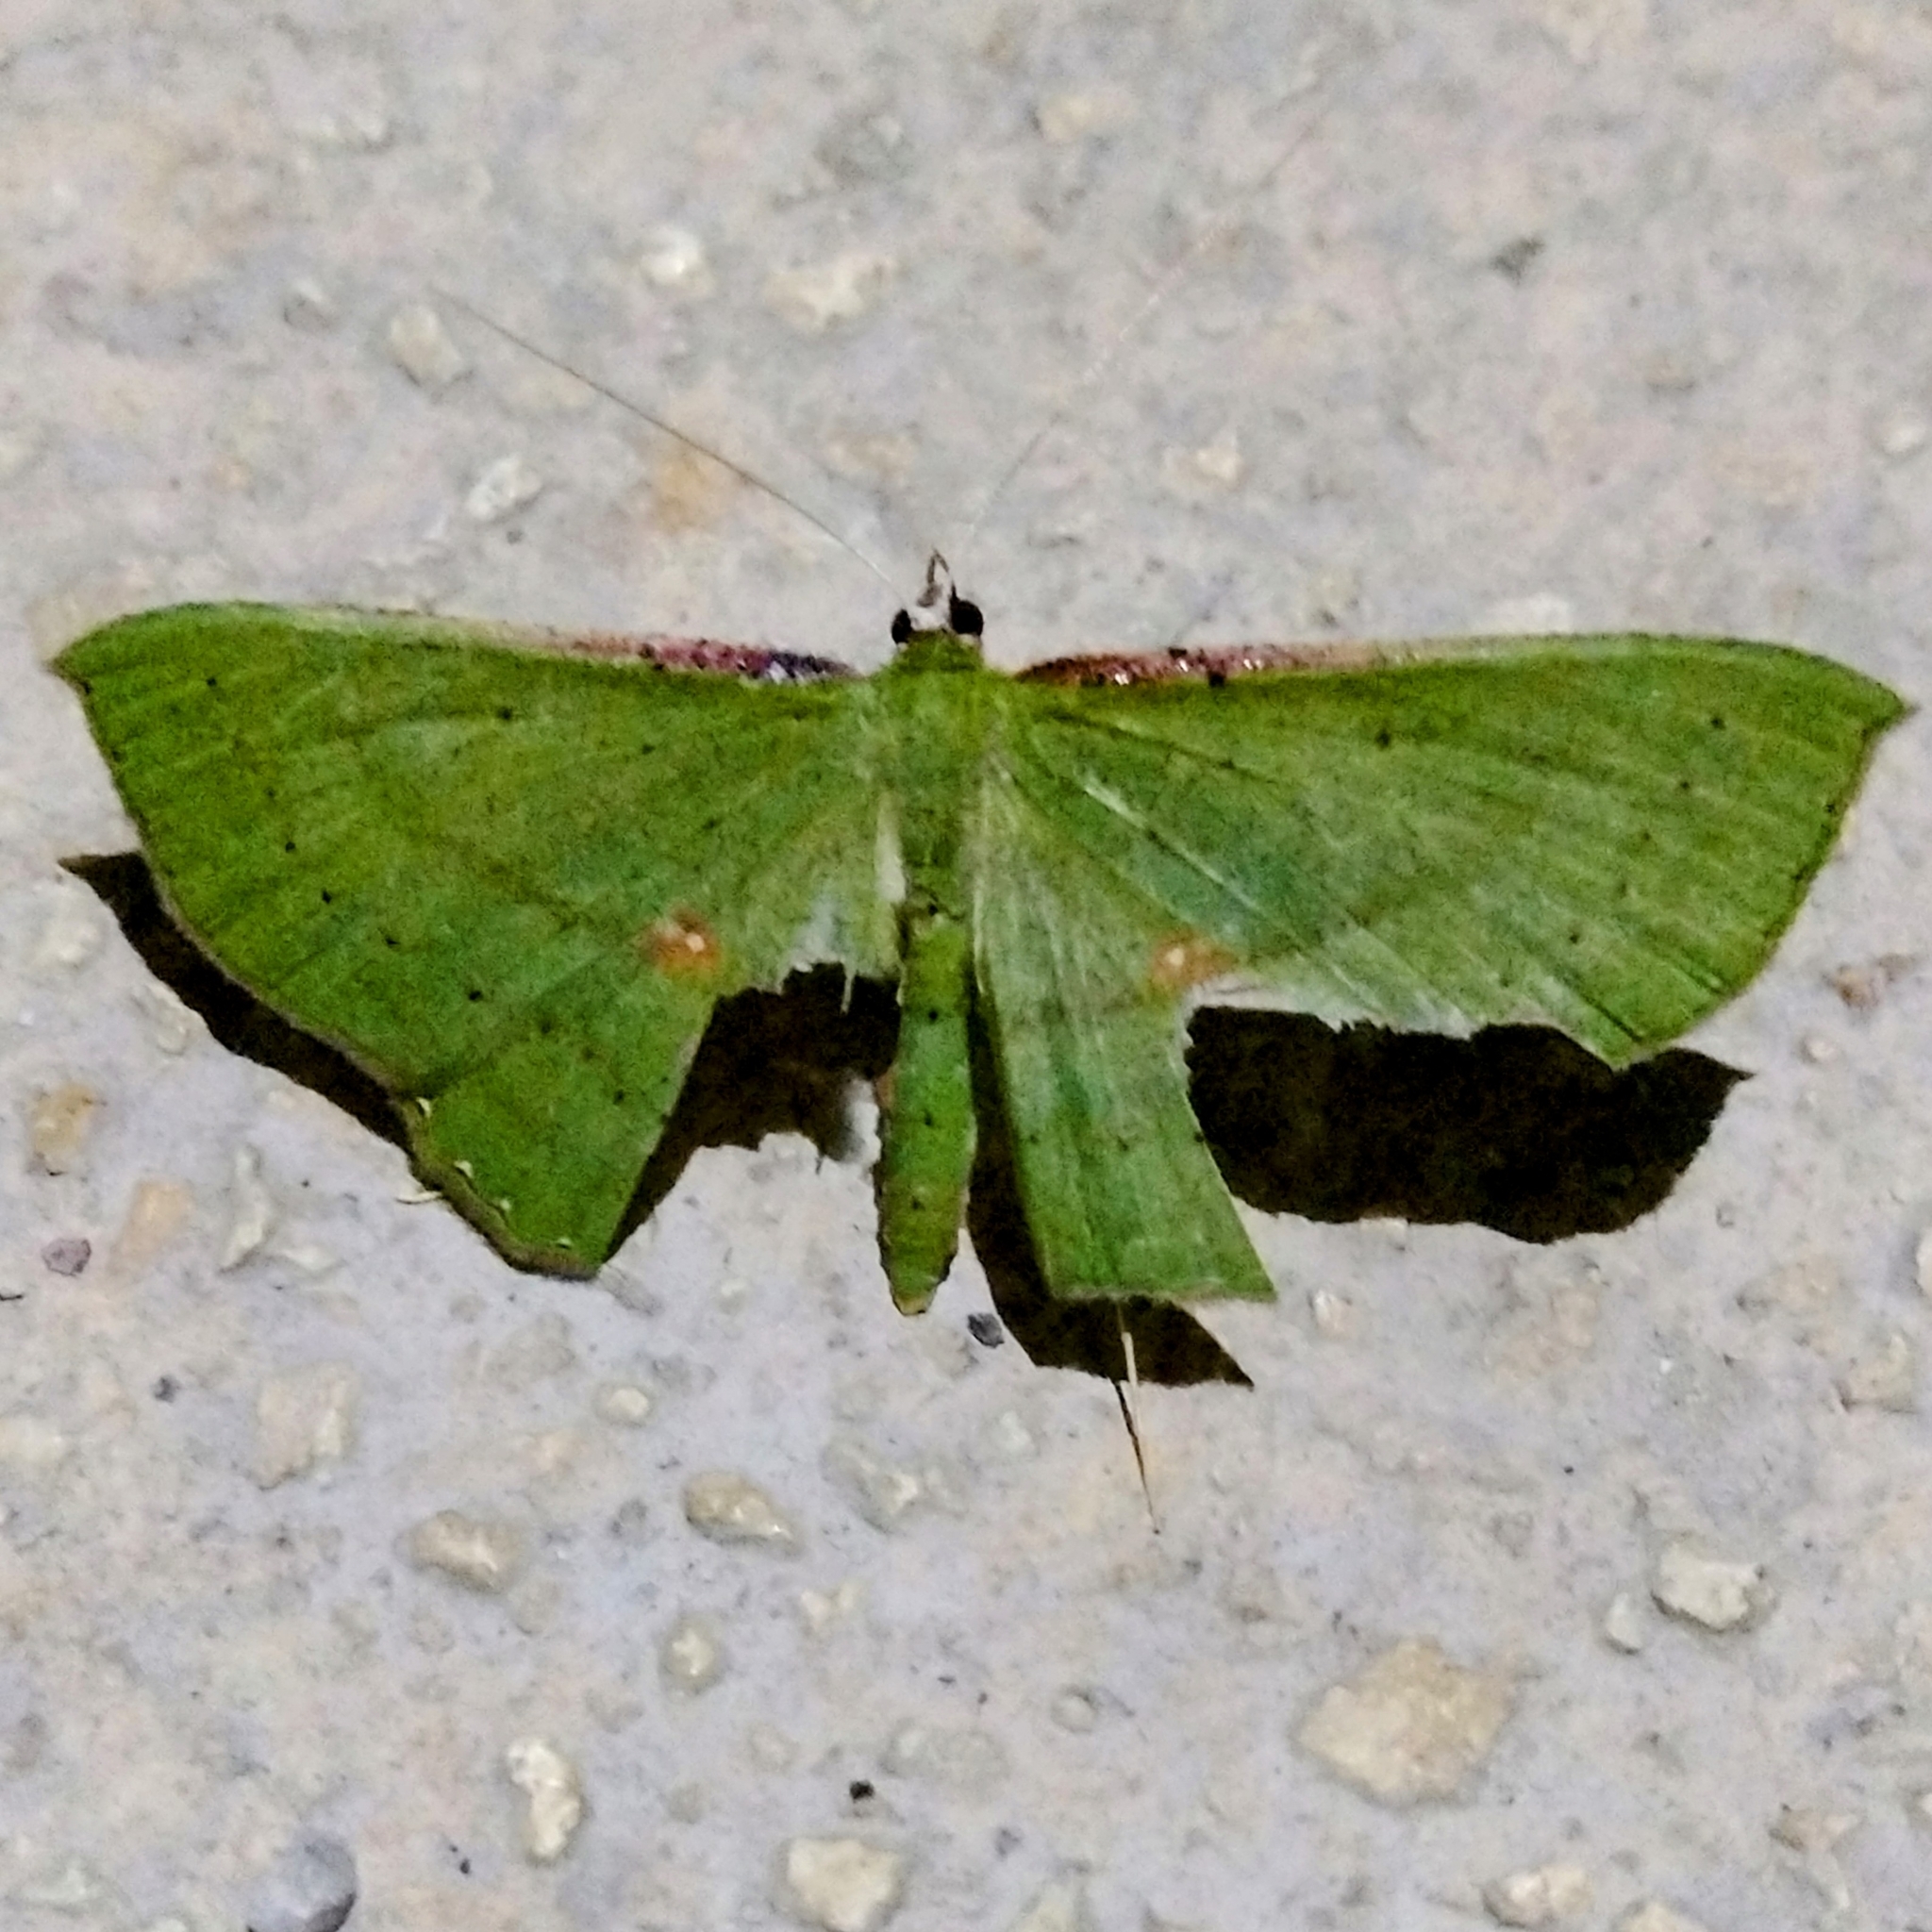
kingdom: Animalia
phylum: Arthropoda
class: Insecta
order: Lepidoptera
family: Geometridae
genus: Ametris
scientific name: Ametris nitocris
